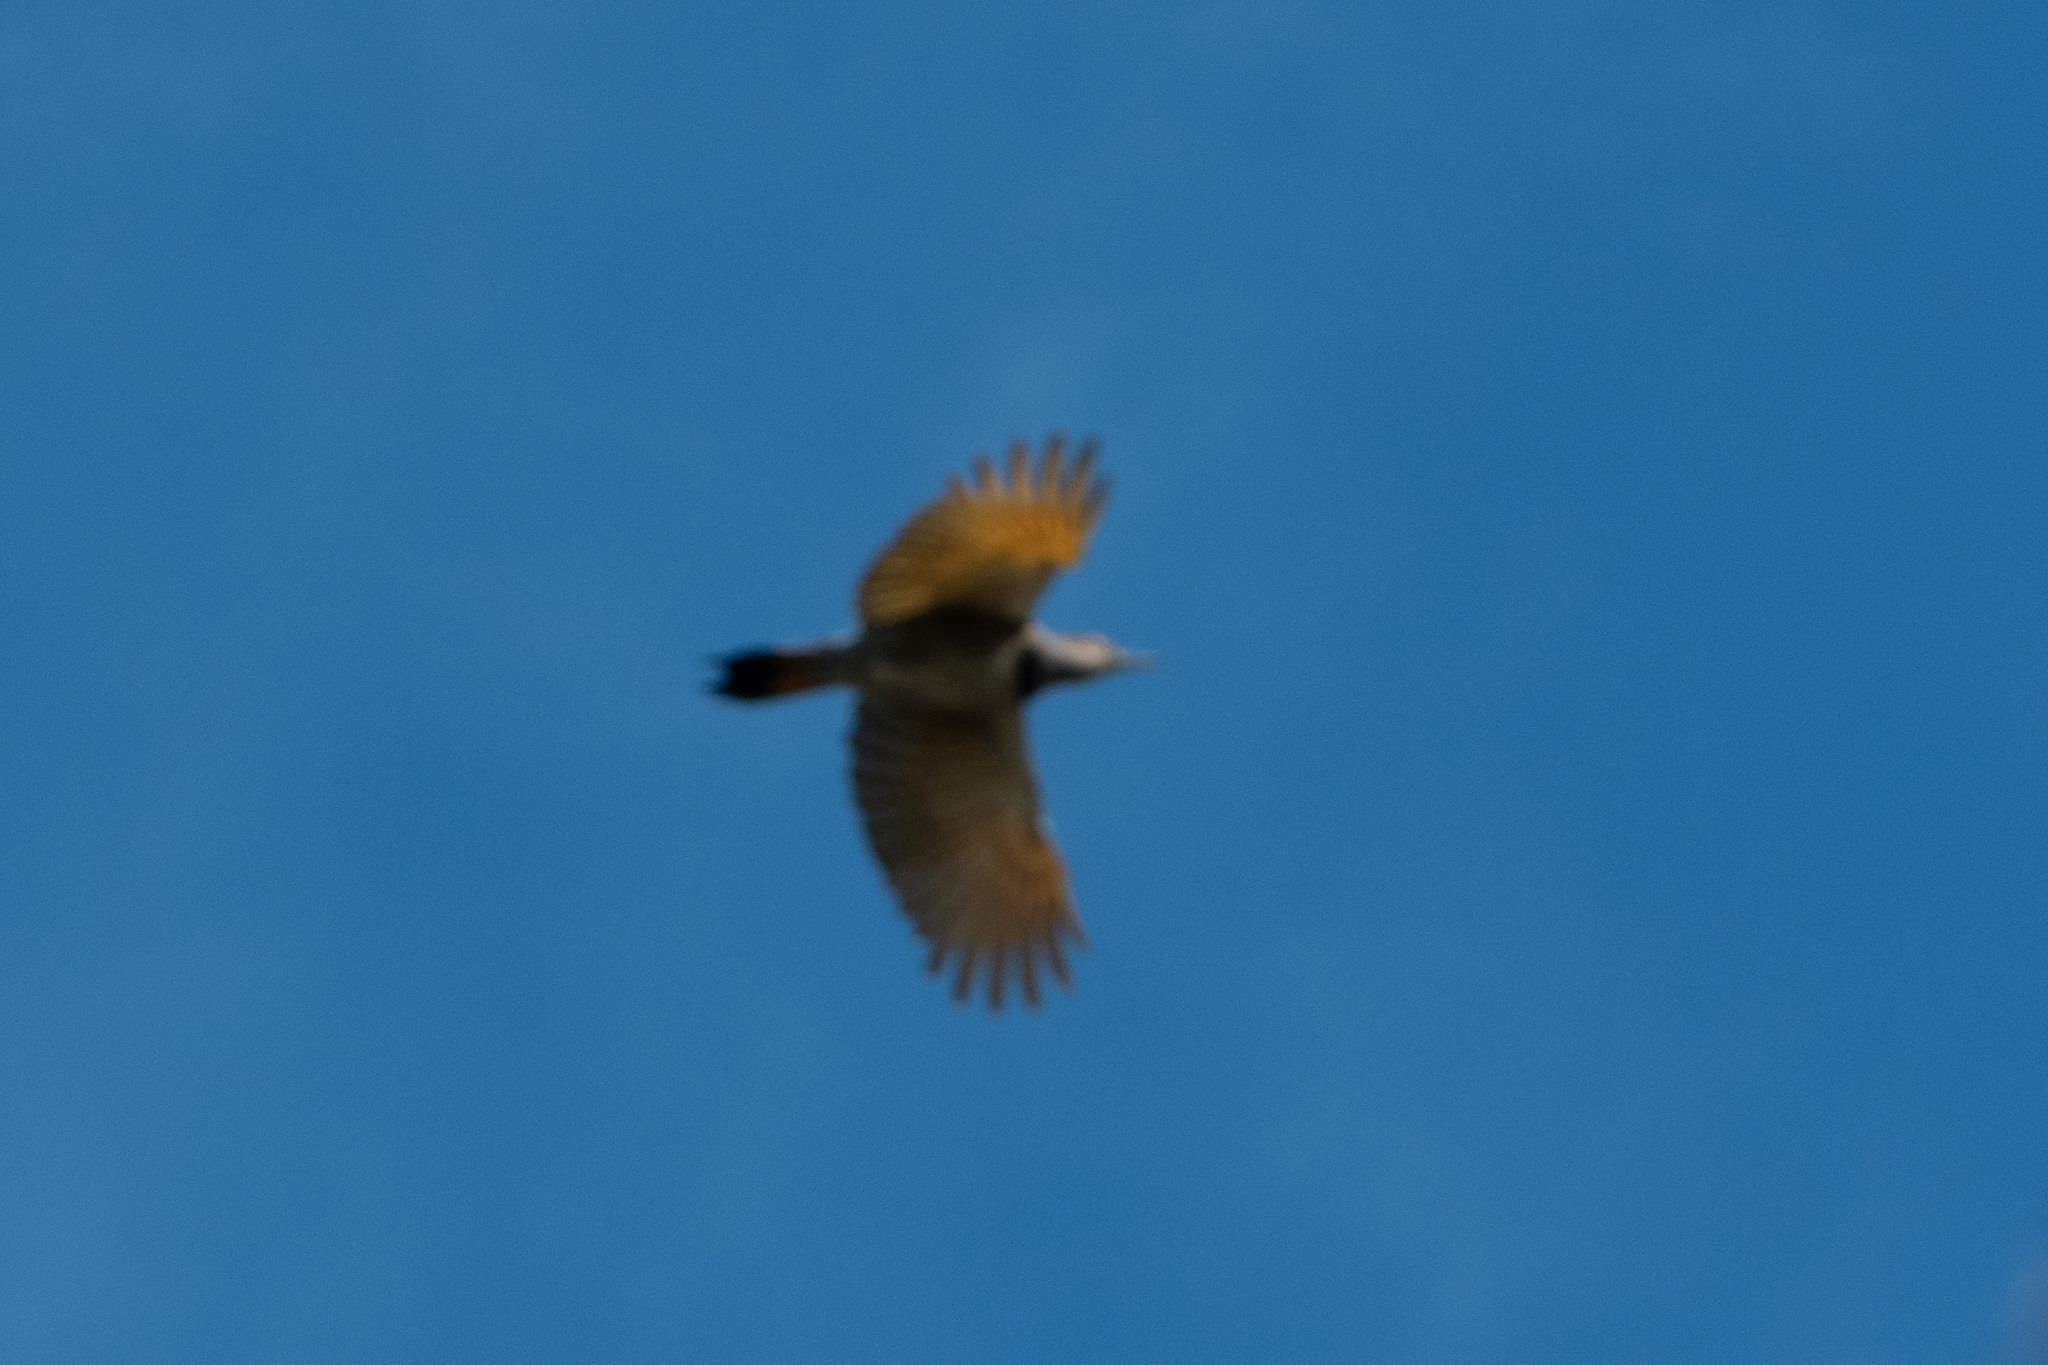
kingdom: Animalia
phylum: Chordata
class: Aves
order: Piciformes
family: Picidae
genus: Colaptes
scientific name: Colaptes auratus
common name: Northern flicker
